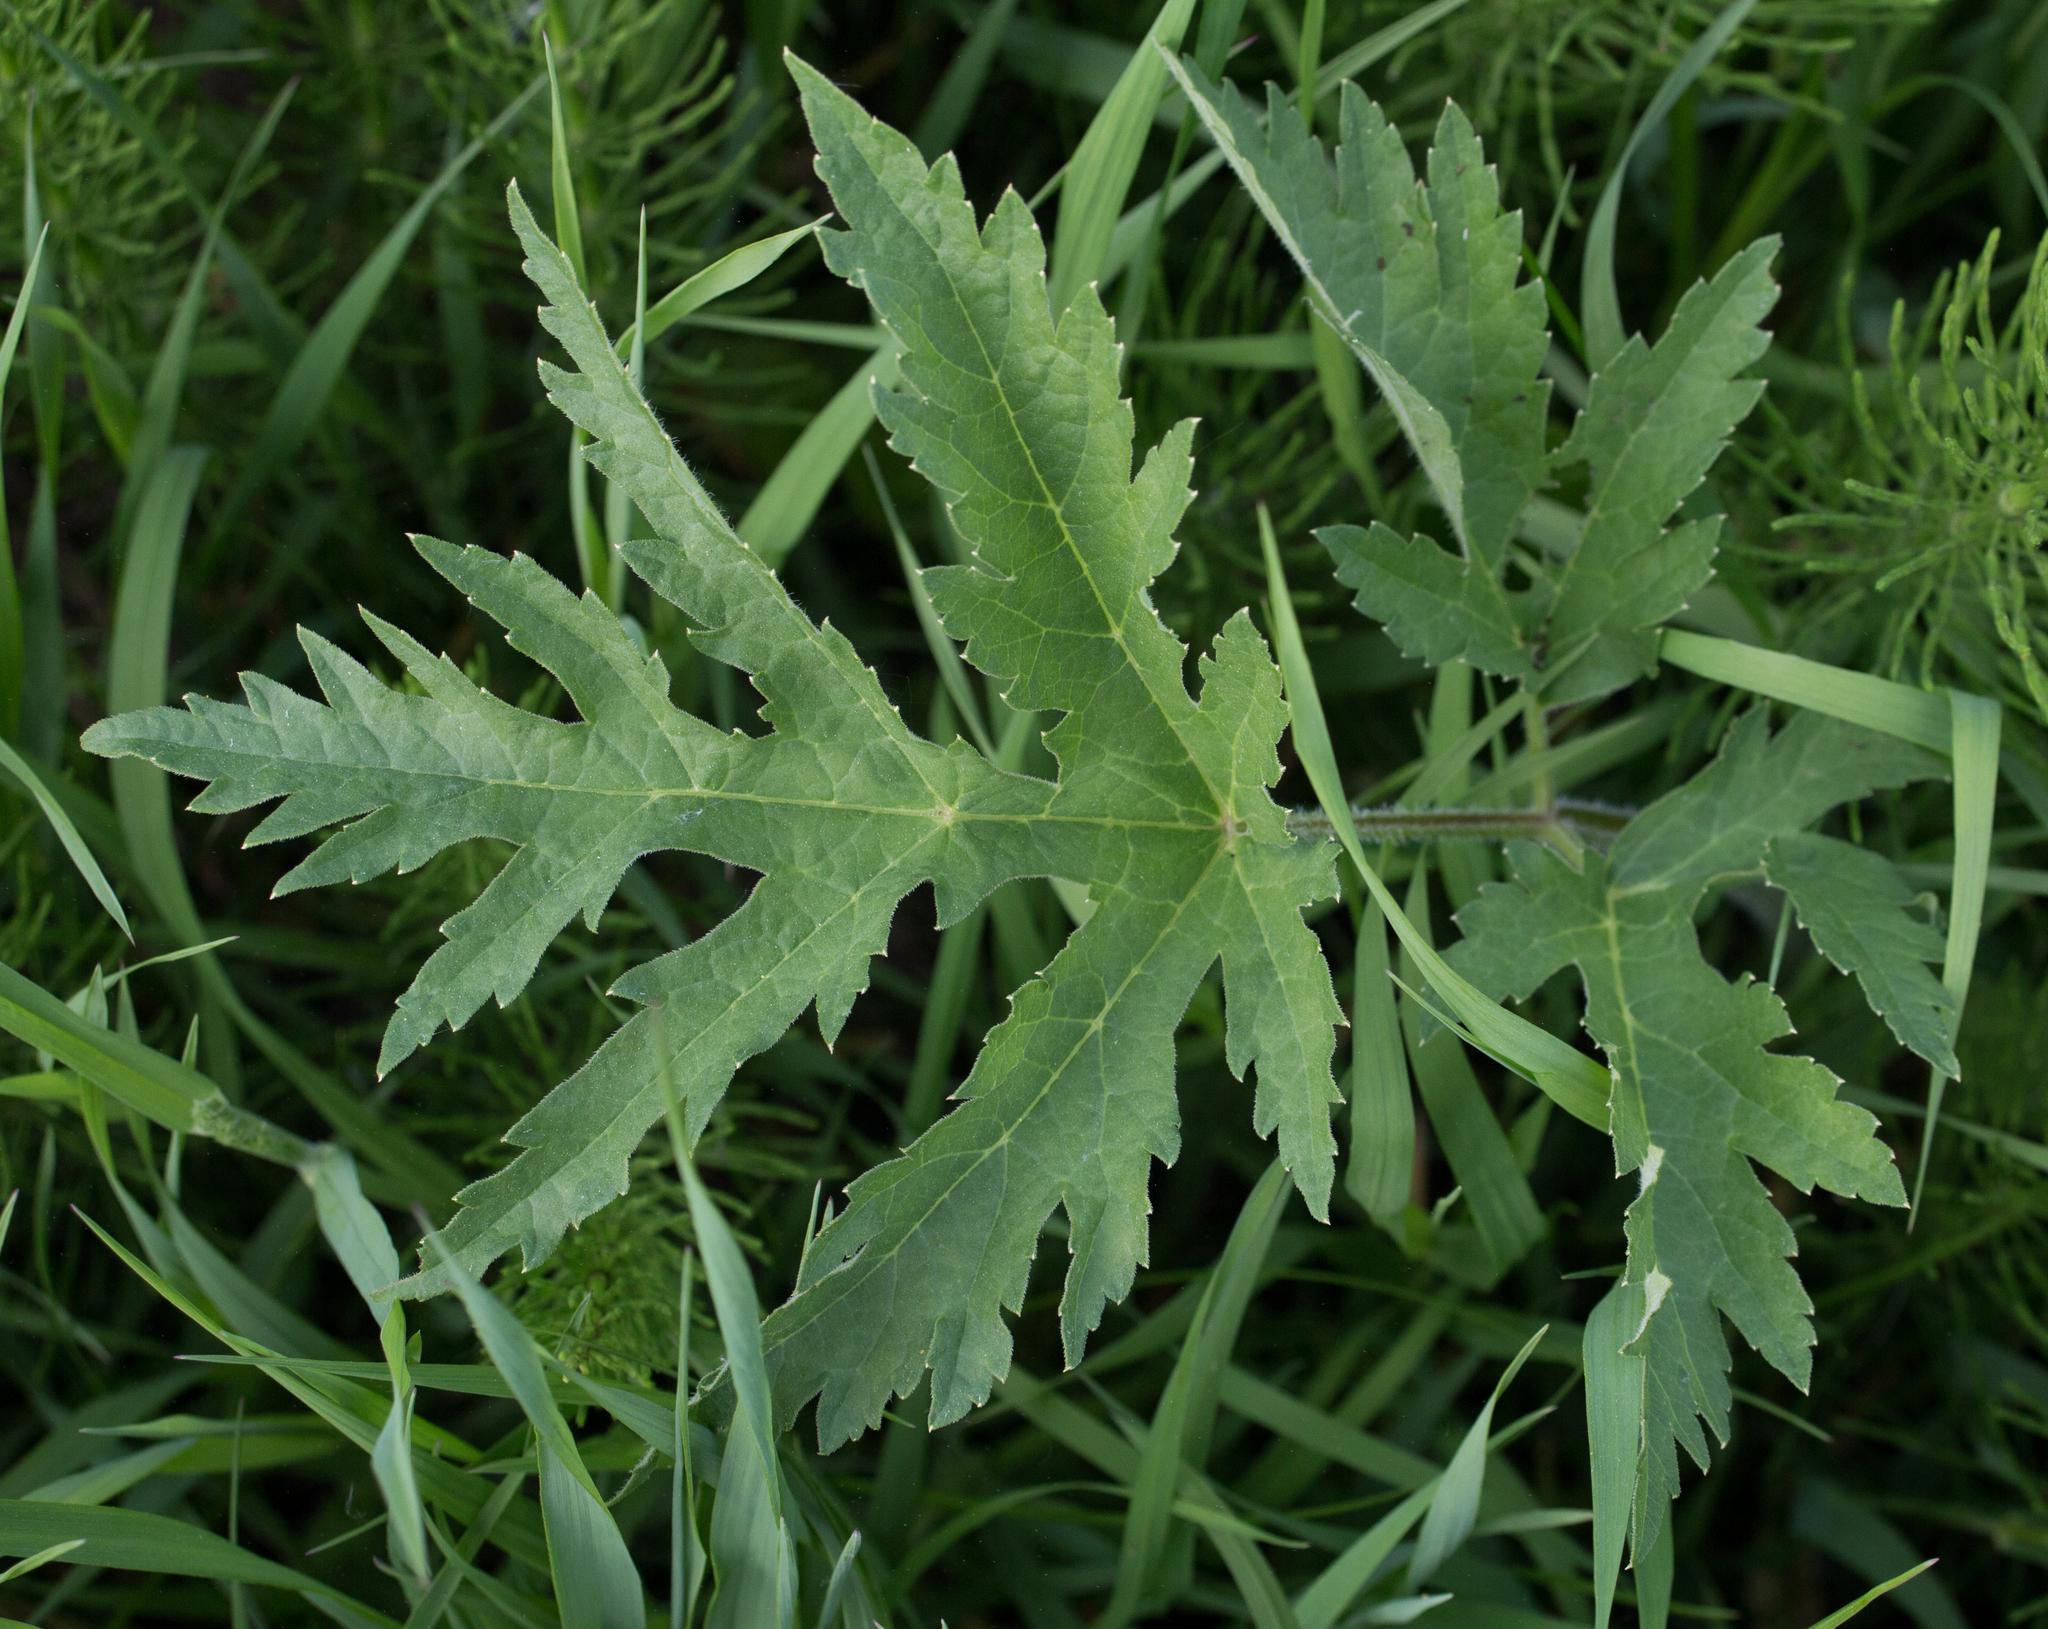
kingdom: Plantae
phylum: Tracheophyta
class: Magnoliopsida
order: Apiales
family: Apiaceae
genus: Heracleum
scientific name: Heracleum sphondylium
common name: Hogweed
